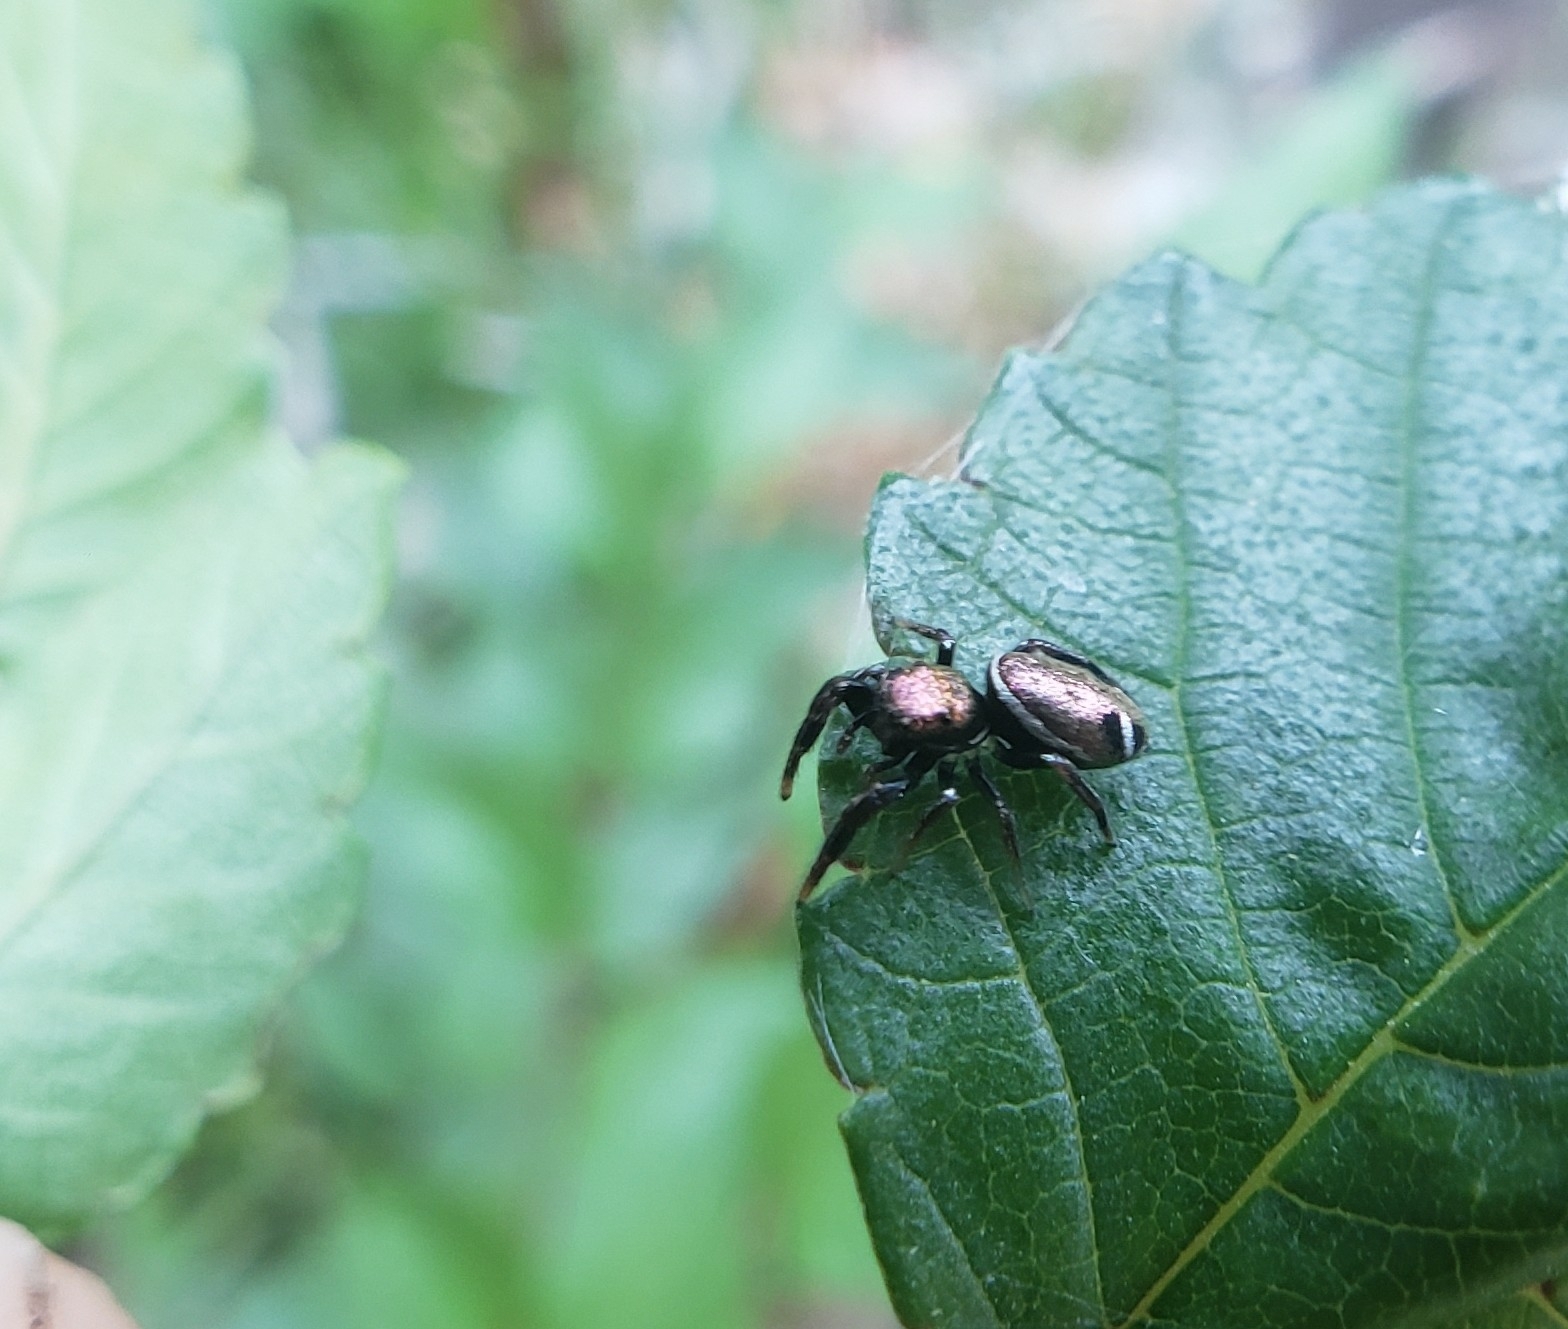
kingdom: Animalia
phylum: Arthropoda
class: Arachnida
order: Araneae
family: Salticidae
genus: Sassacus
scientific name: Sassacus vitis
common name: Jumping spiders
